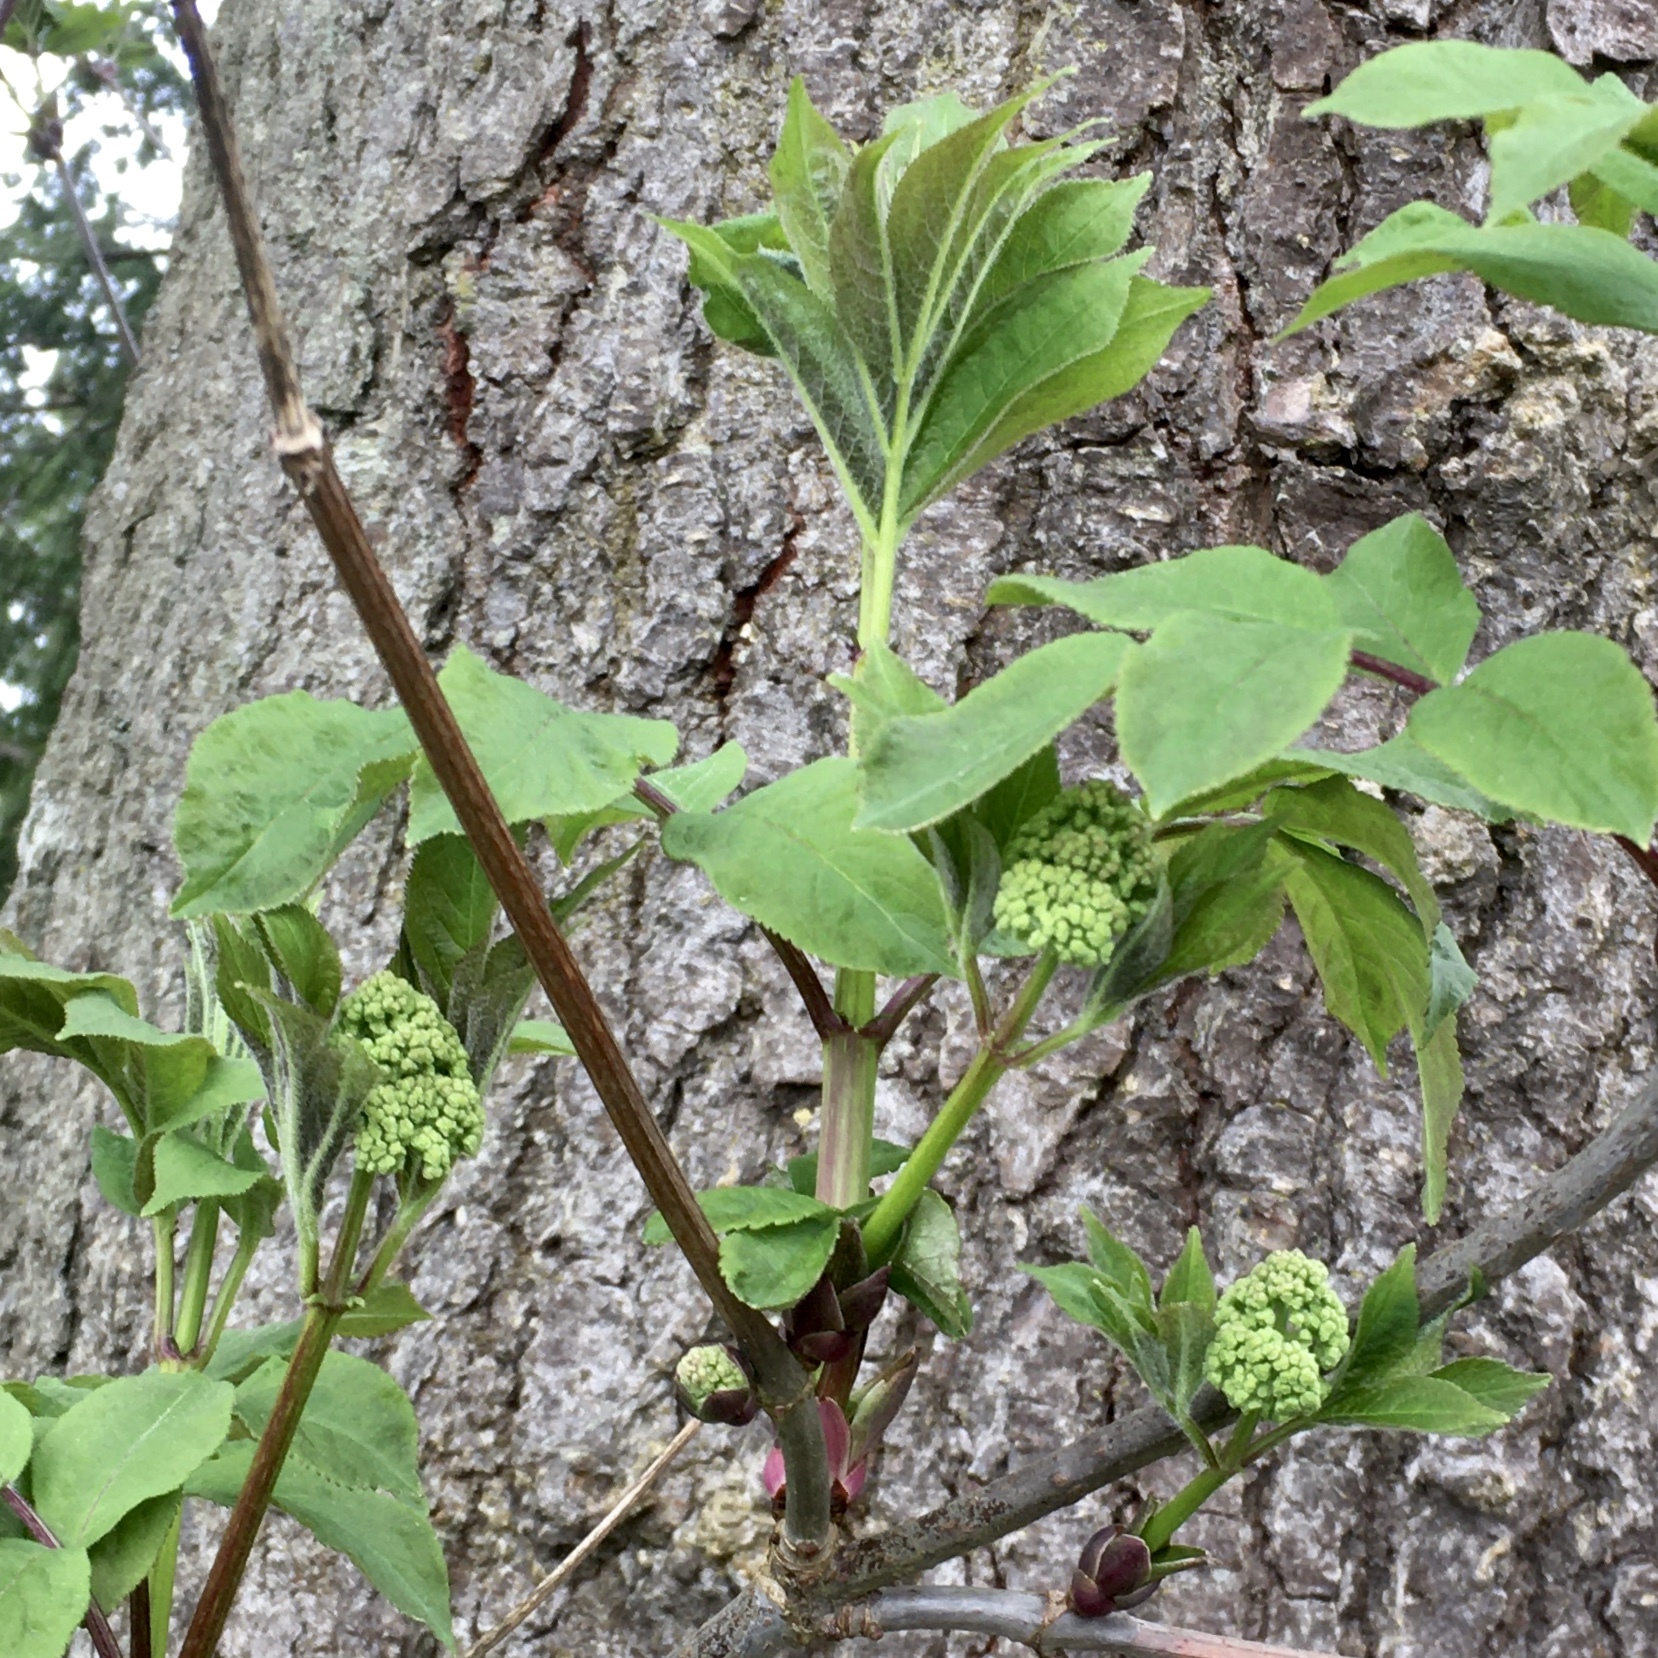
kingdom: Plantae
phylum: Tracheophyta
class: Magnoliopsida
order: Dipsacales
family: Viburnaceae
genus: Sambucus
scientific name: Sambucus racemosa
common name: Red-berried elder
